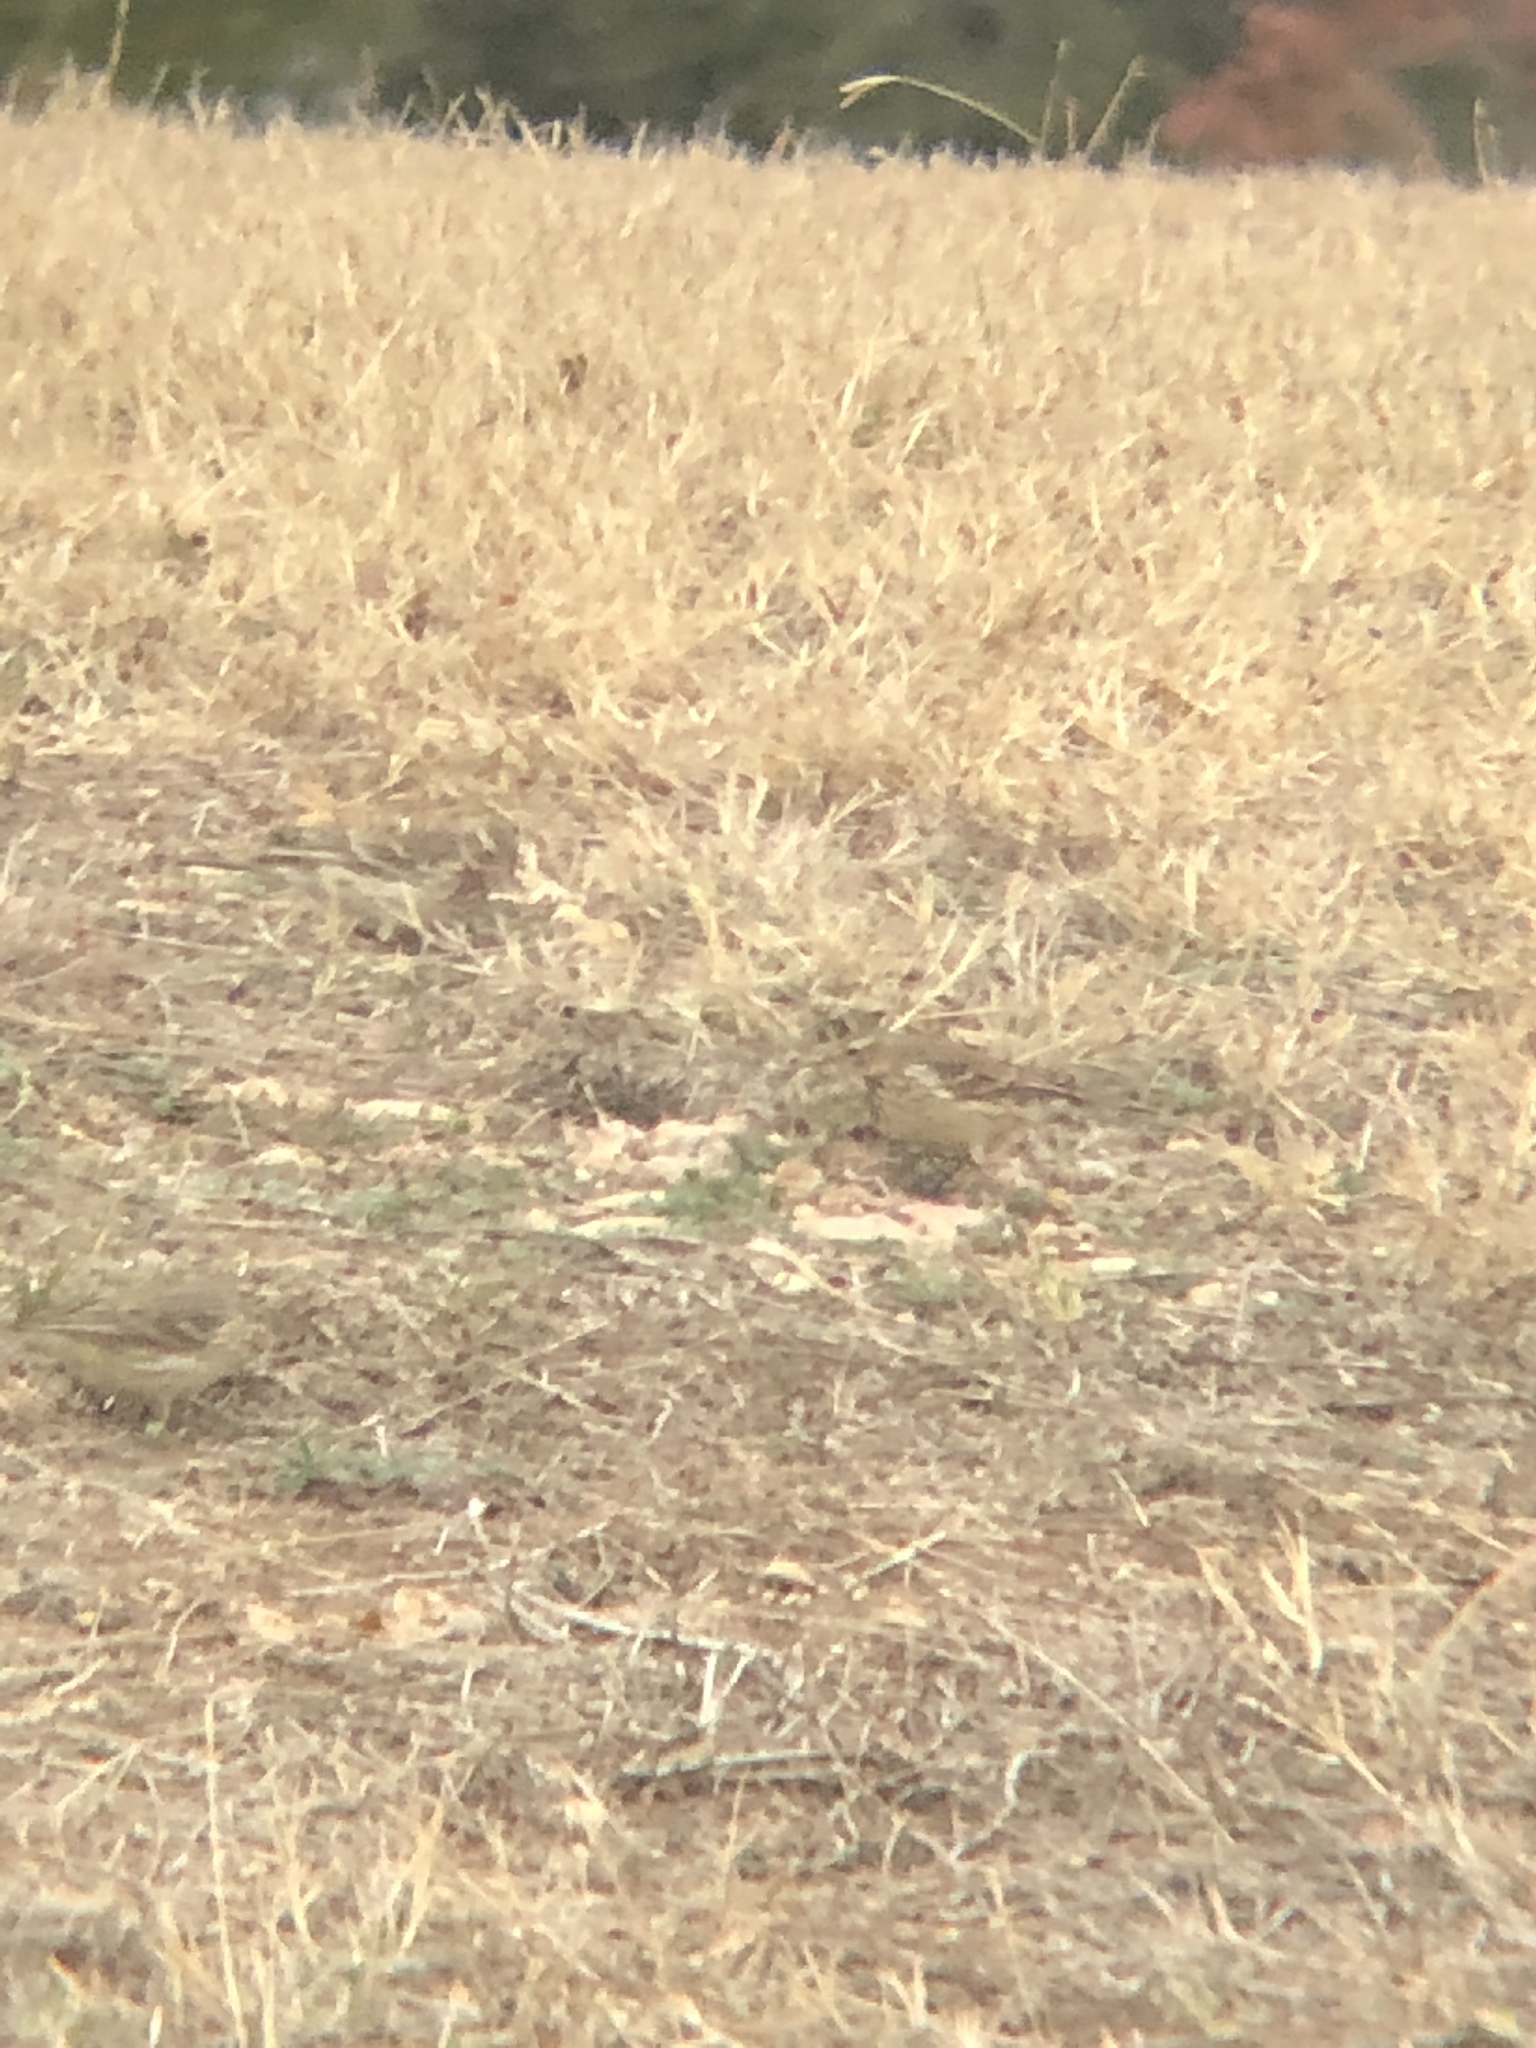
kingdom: Animalia
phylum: Chordata
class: Aves
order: Passeriformes
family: Motacillidae
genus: Anthus
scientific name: Anthus rubescens
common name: Buff-bellied pipit
